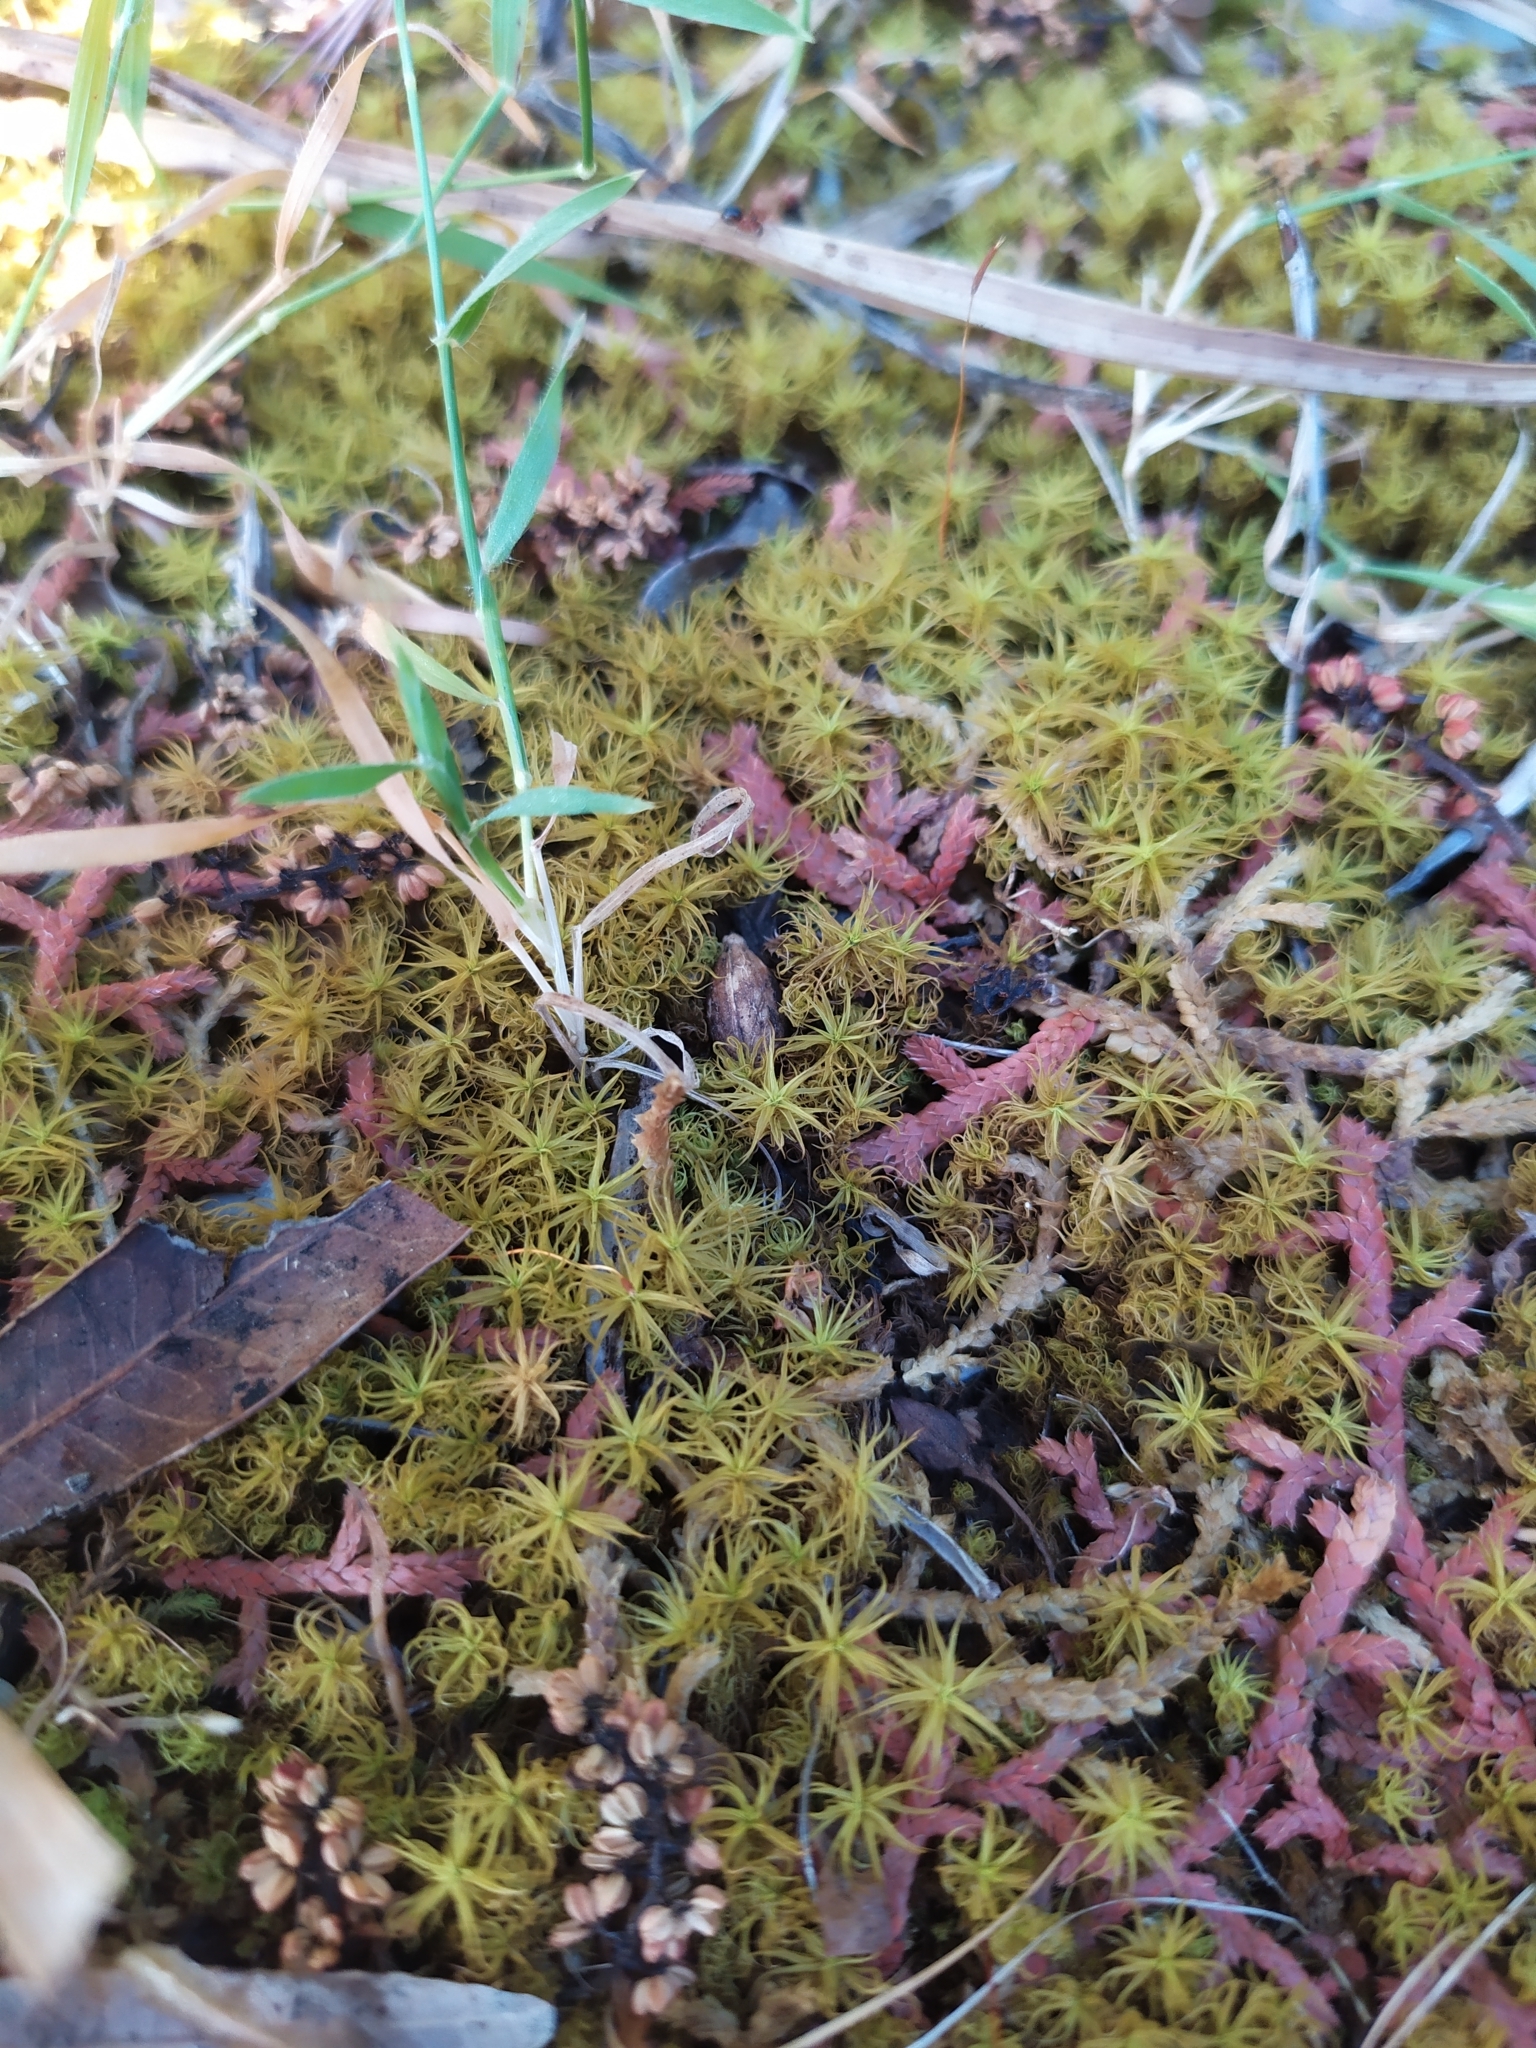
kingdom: Plantae
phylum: Bryophyta
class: Bryopsida
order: Pottiales
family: Pottiaceae
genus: Pleurochaete
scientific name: Pleurochaete squarrosa
